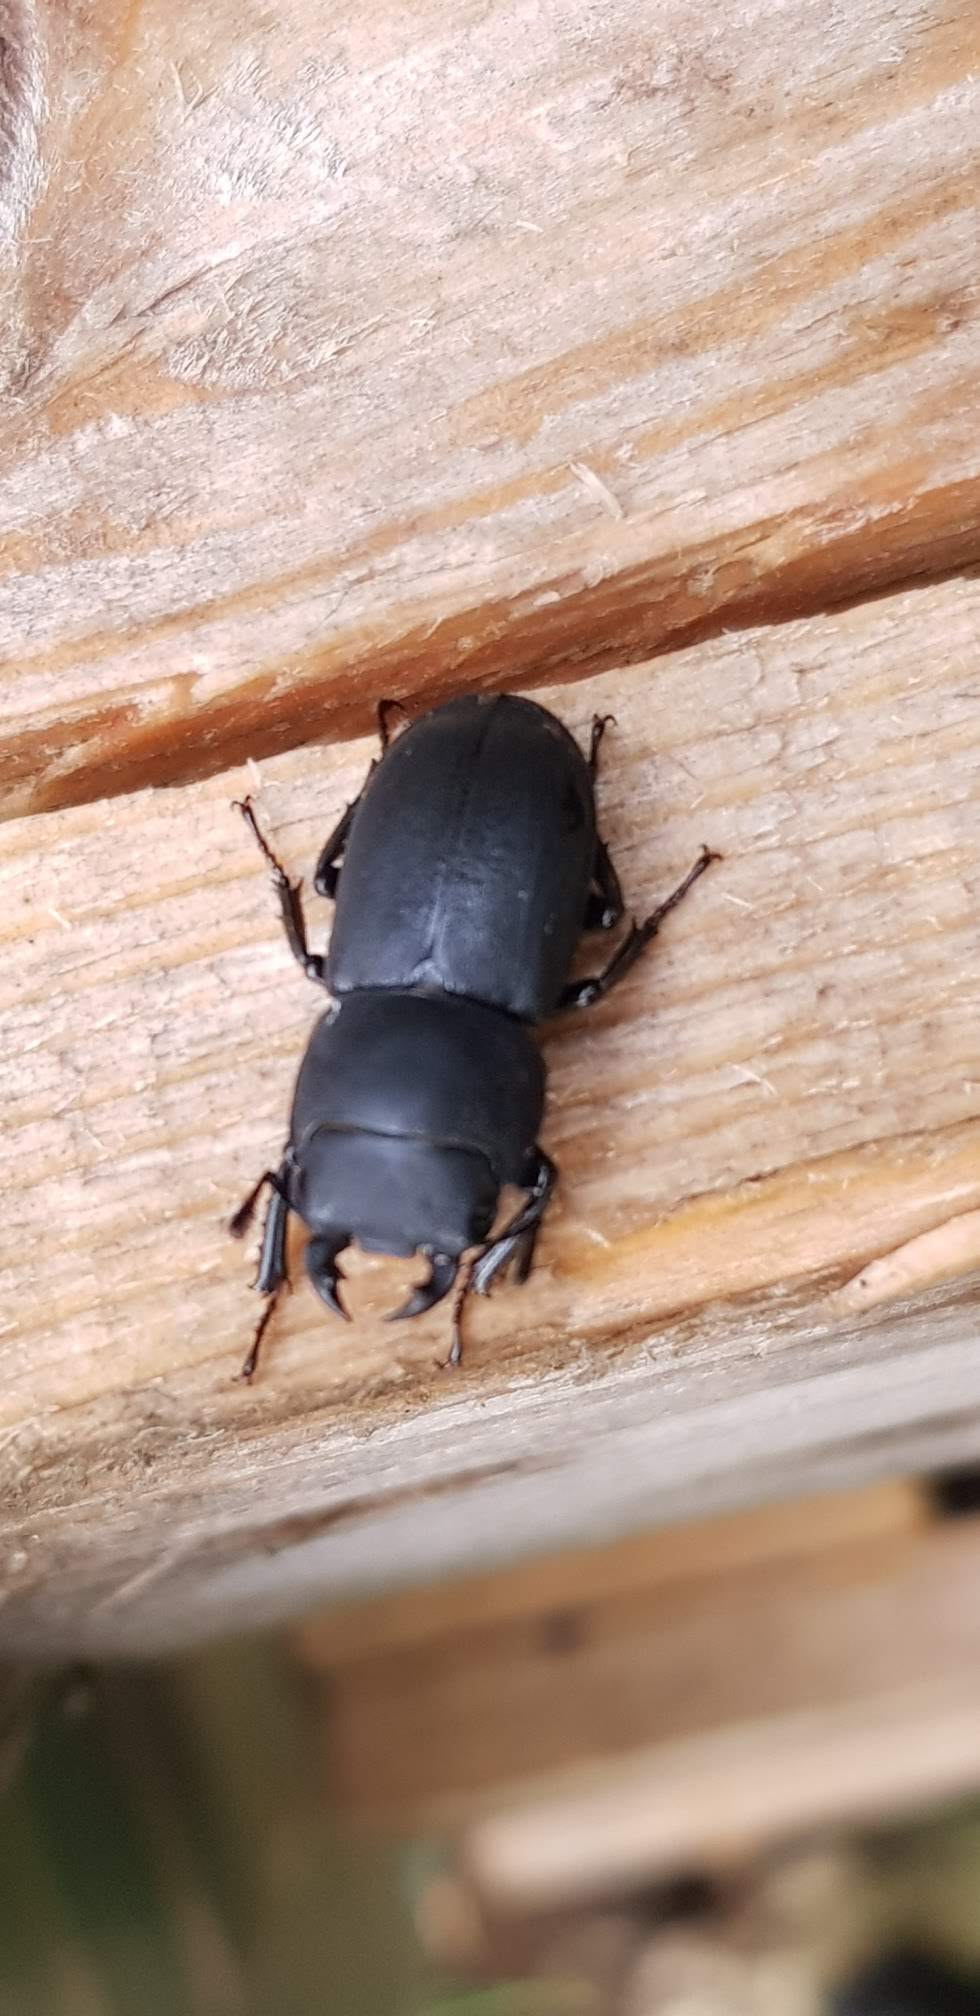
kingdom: Animalia
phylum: Arthropoda
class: Insecta
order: Coleoptera
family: Lucanidae
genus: Dorcus
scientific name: Dorcus parallelipipedus
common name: Lesser stag beetle
